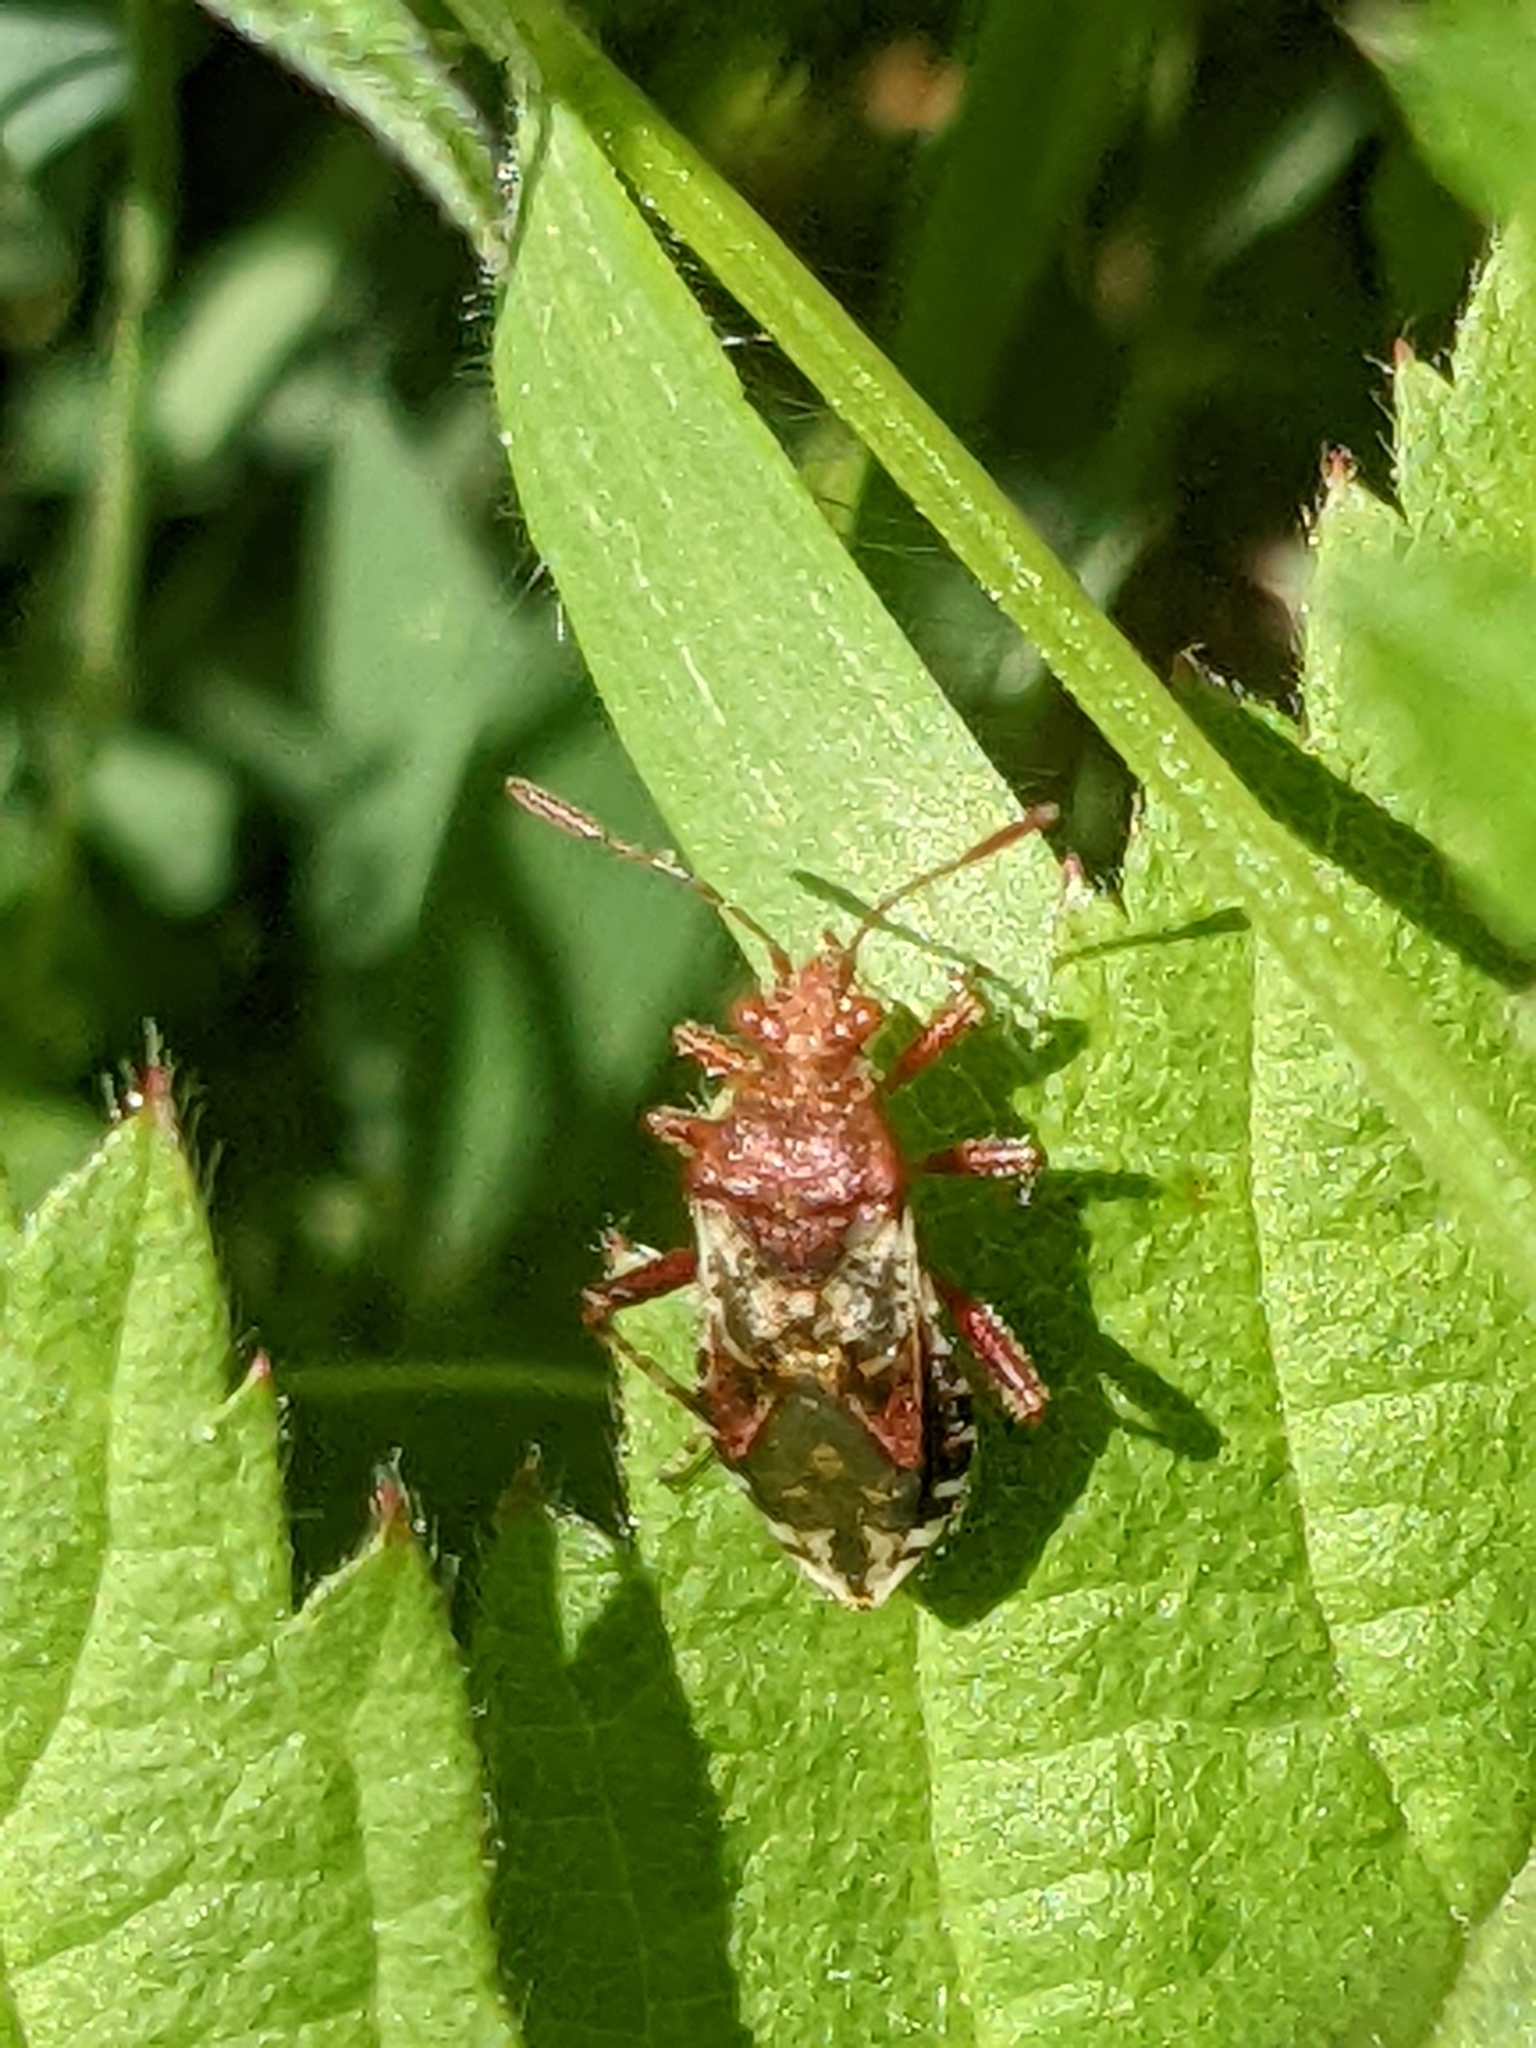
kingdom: Animalia
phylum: Arthropoda
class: Insecta
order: Hemiptera
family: Rhopalidae
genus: Rhopalus
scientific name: Rhopalus subrufus
